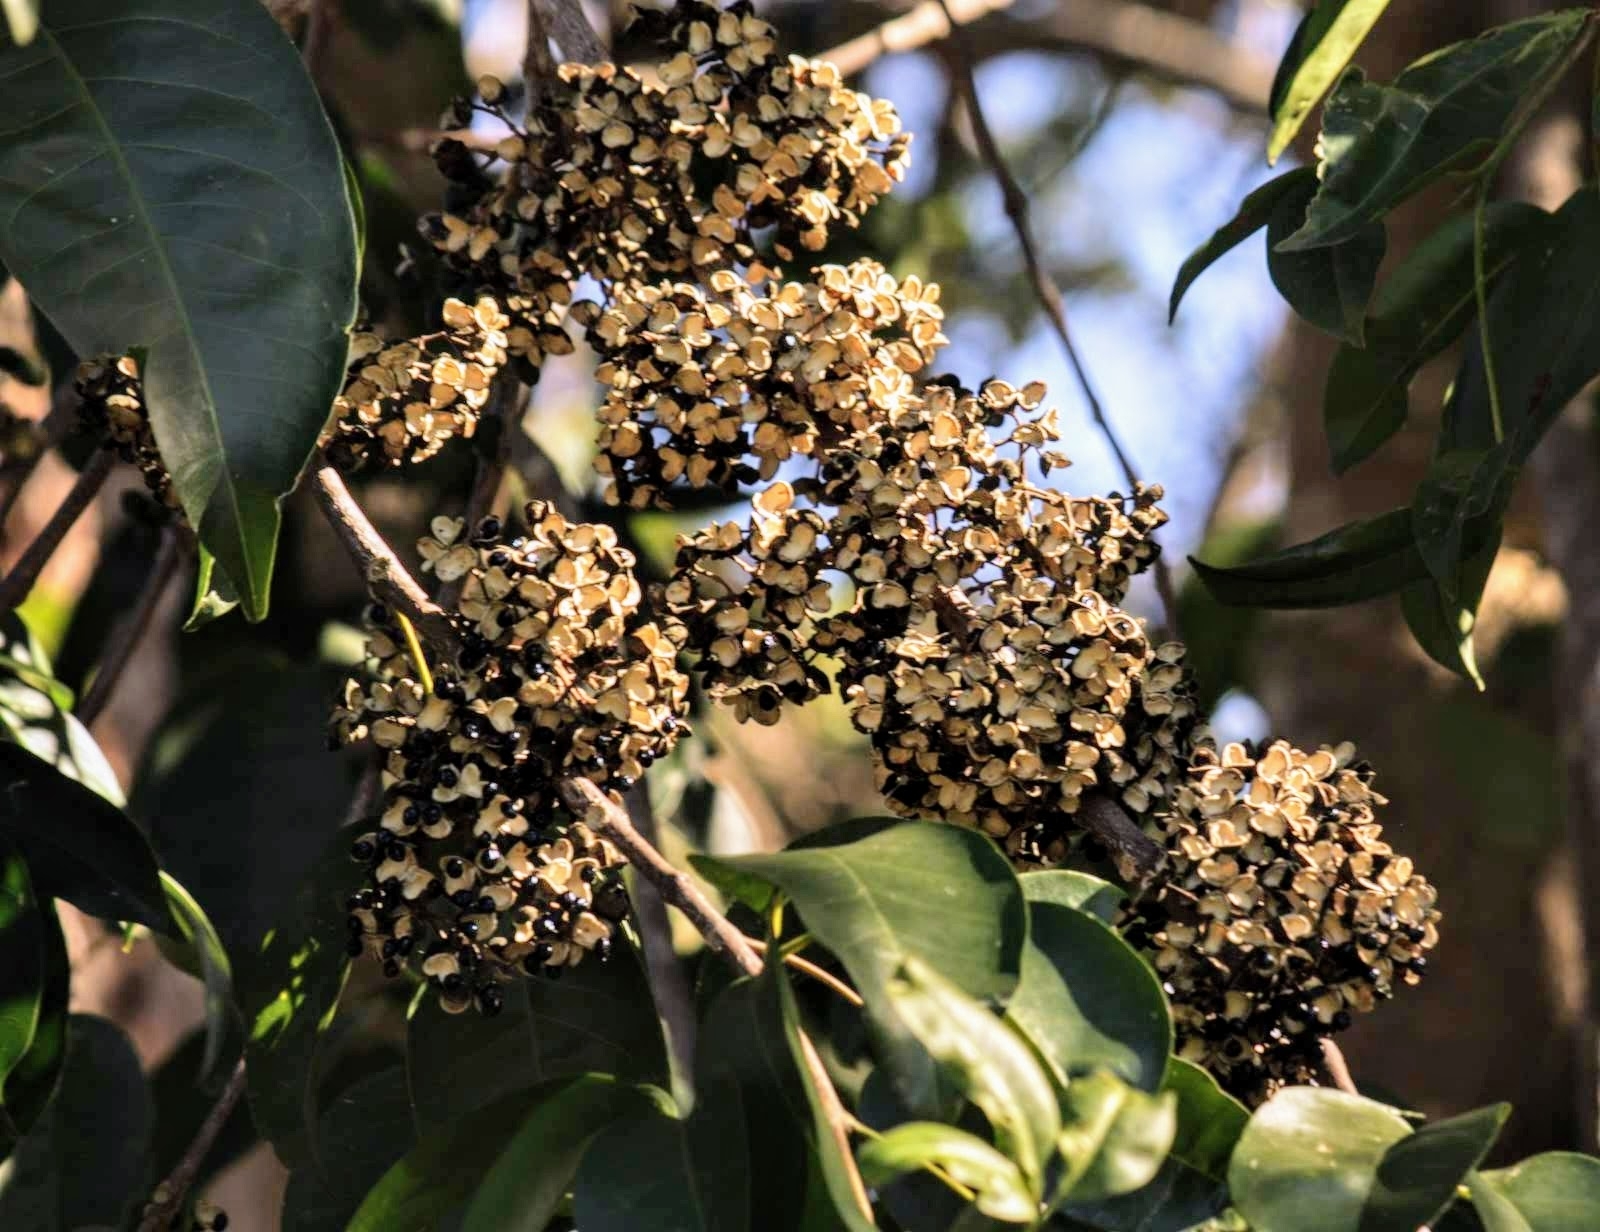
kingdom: Plantae
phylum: Tracheophyta
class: Magnoliopsida
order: Sapindales
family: Rutaceae
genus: Melicope
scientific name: Melicope elleryana
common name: Pink euodia
